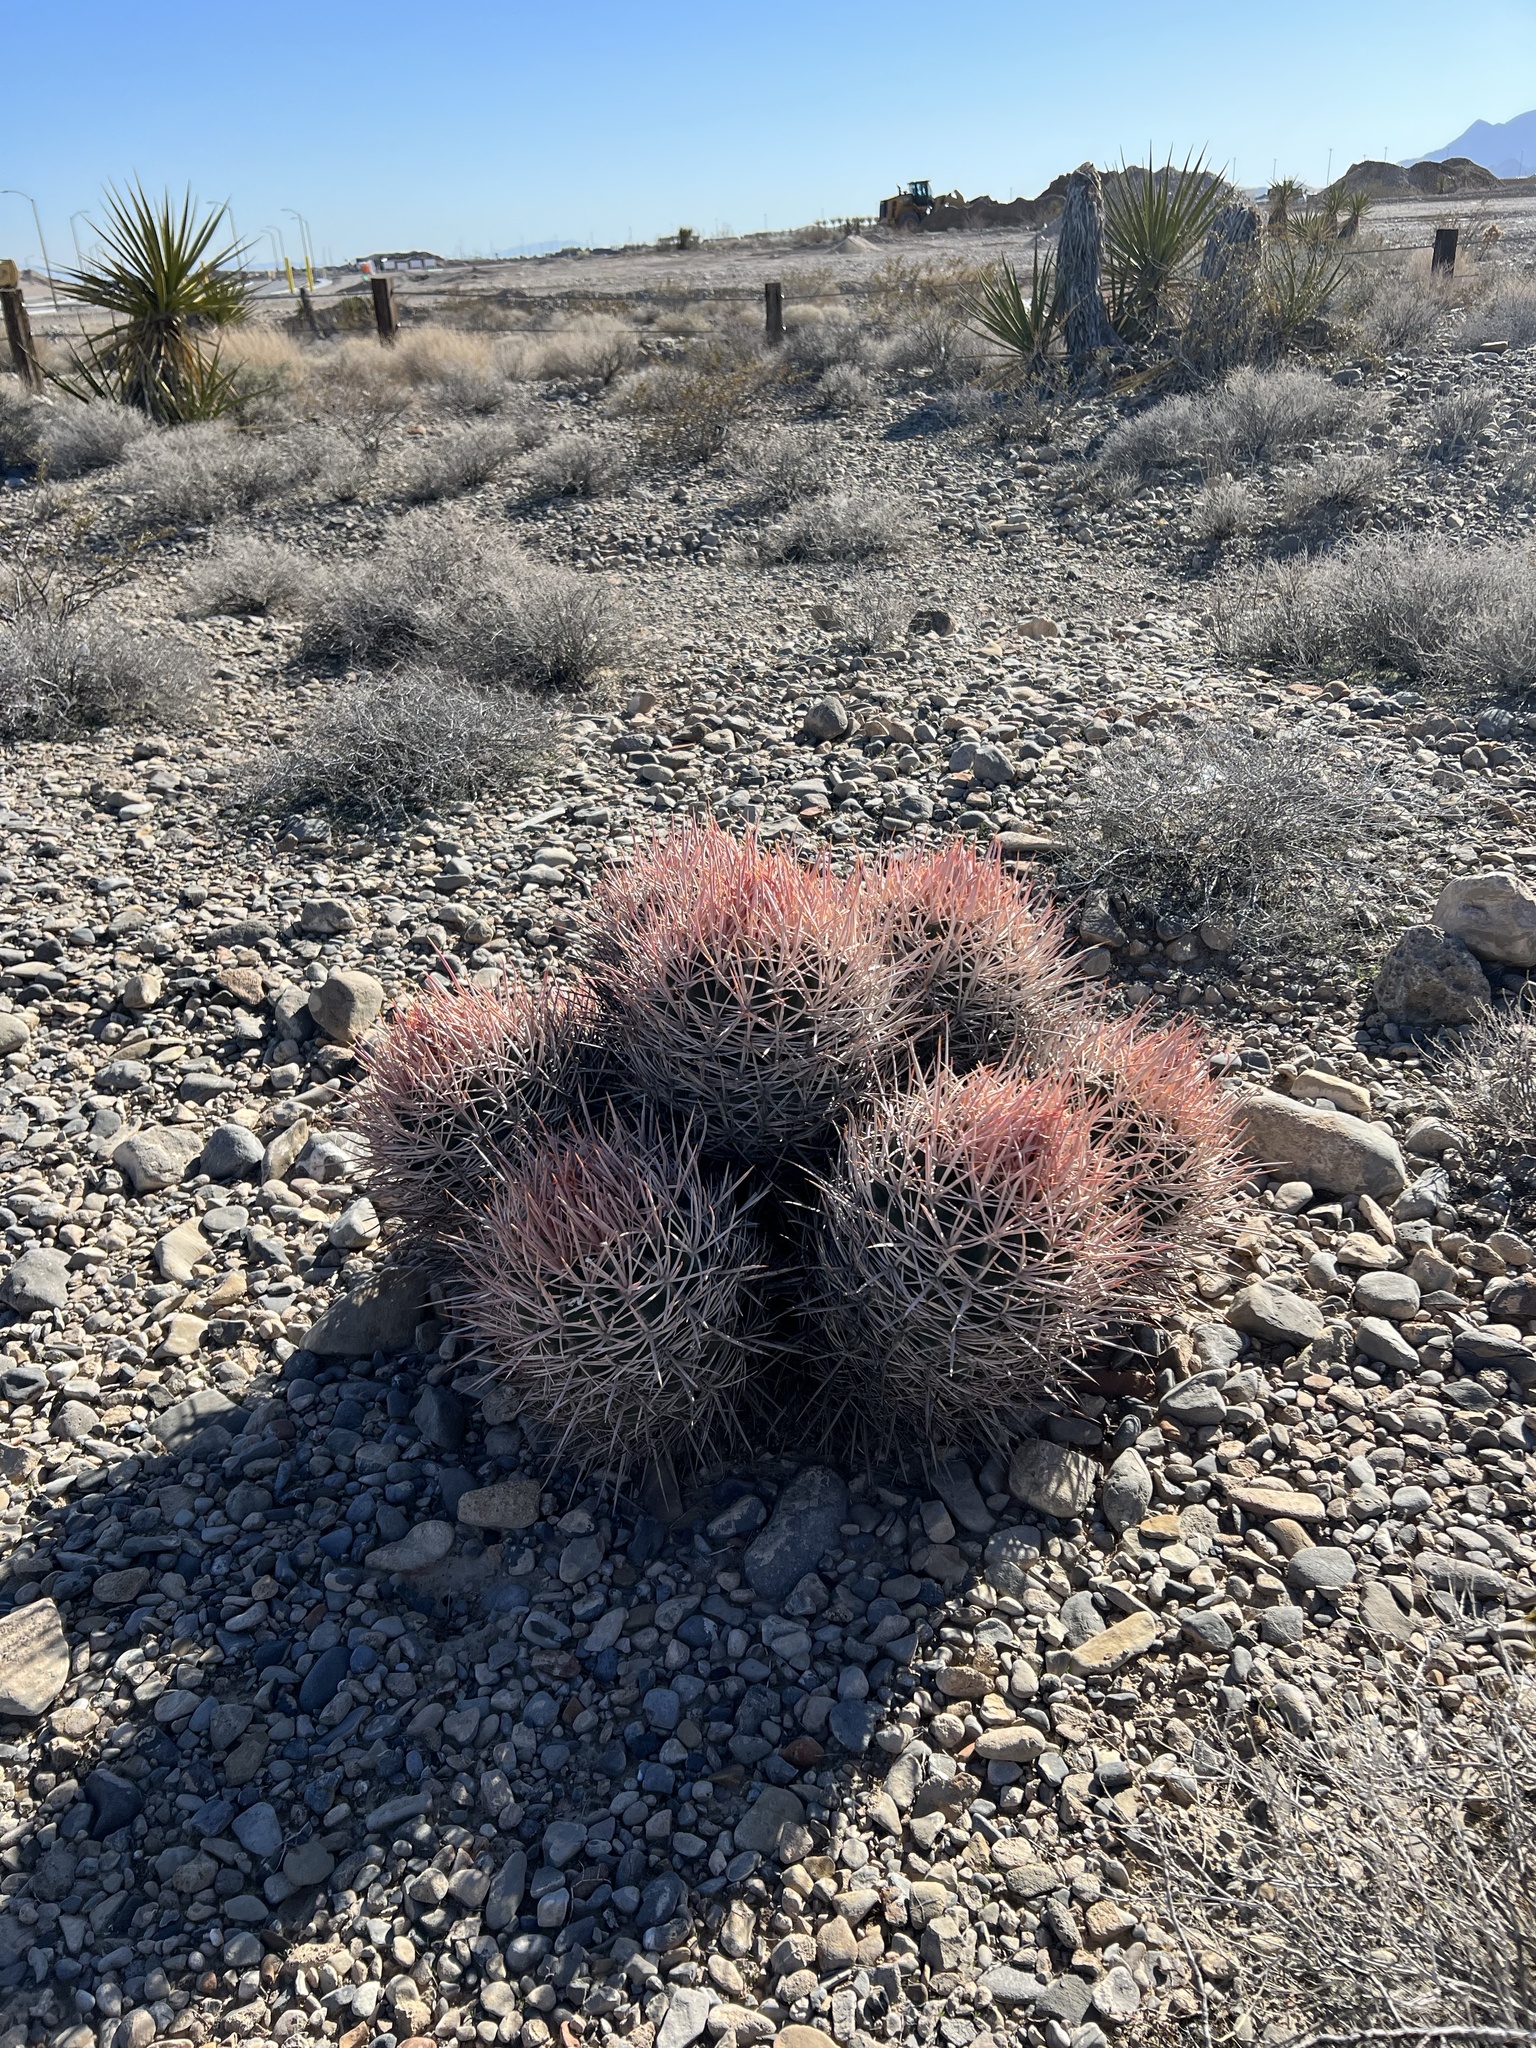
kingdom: Plantae
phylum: Tracheophyta
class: Magnoliopsida
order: Caryophyllales
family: Cactaceae
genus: Echinocactus
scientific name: Echinocactus polycephalus
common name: Cottontop cactus
